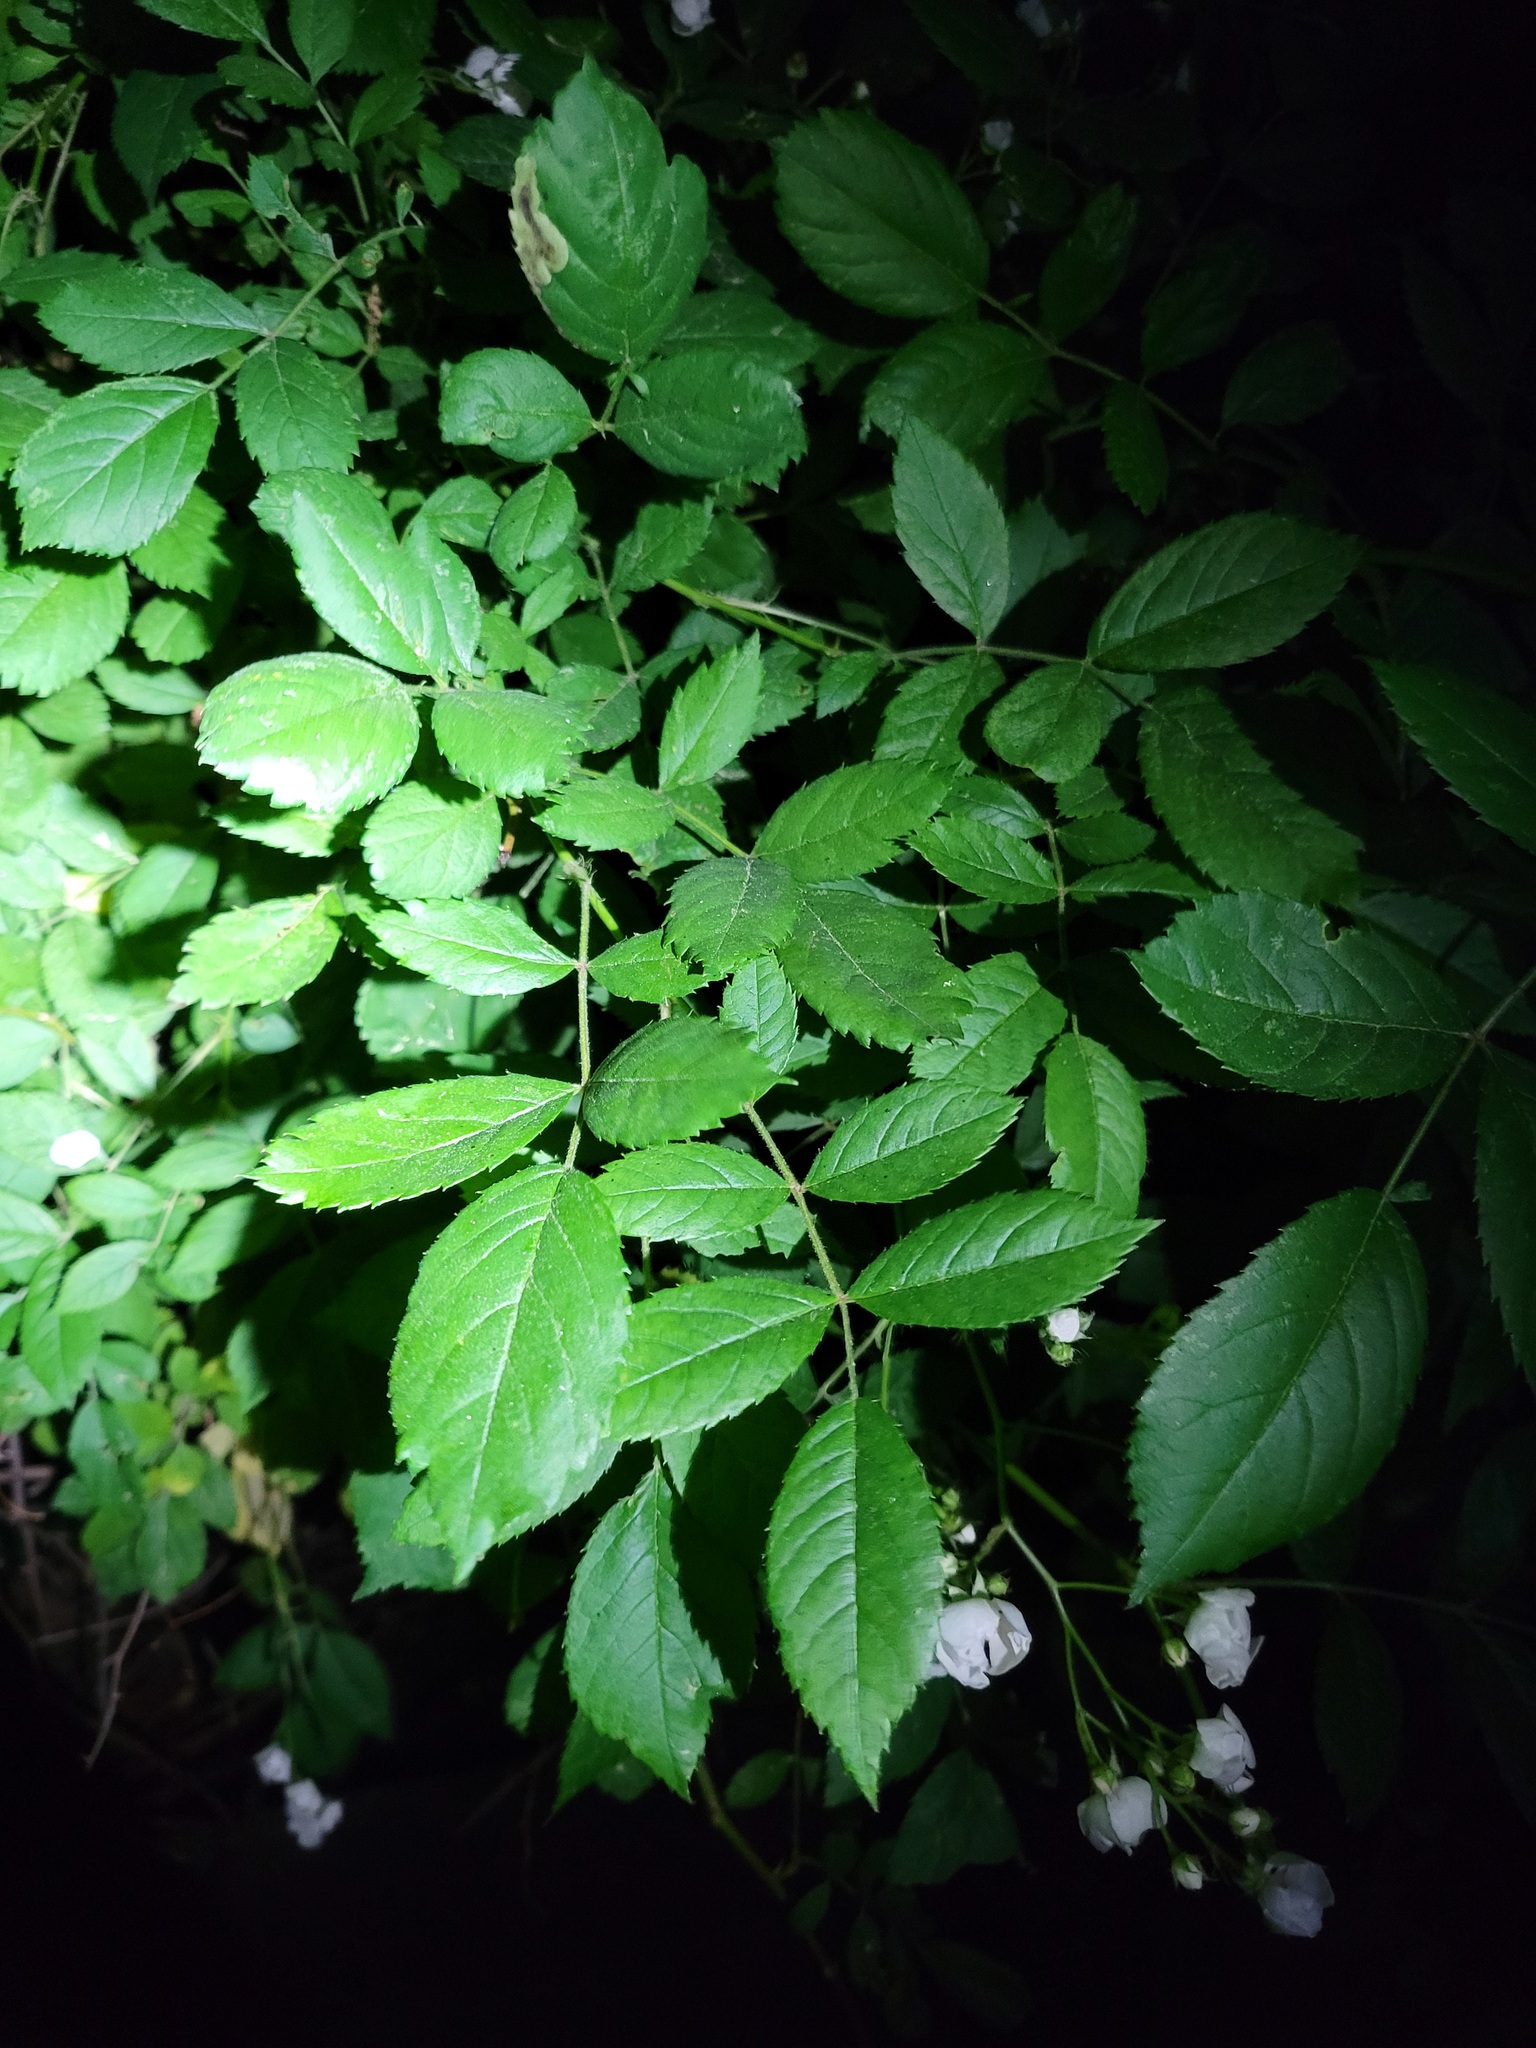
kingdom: Plantae
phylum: Tracheophyta
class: Magnoliopsida
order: Rosales
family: Rosaceae
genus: Rosa
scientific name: Rosa multiflora
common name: Multiflora rose
